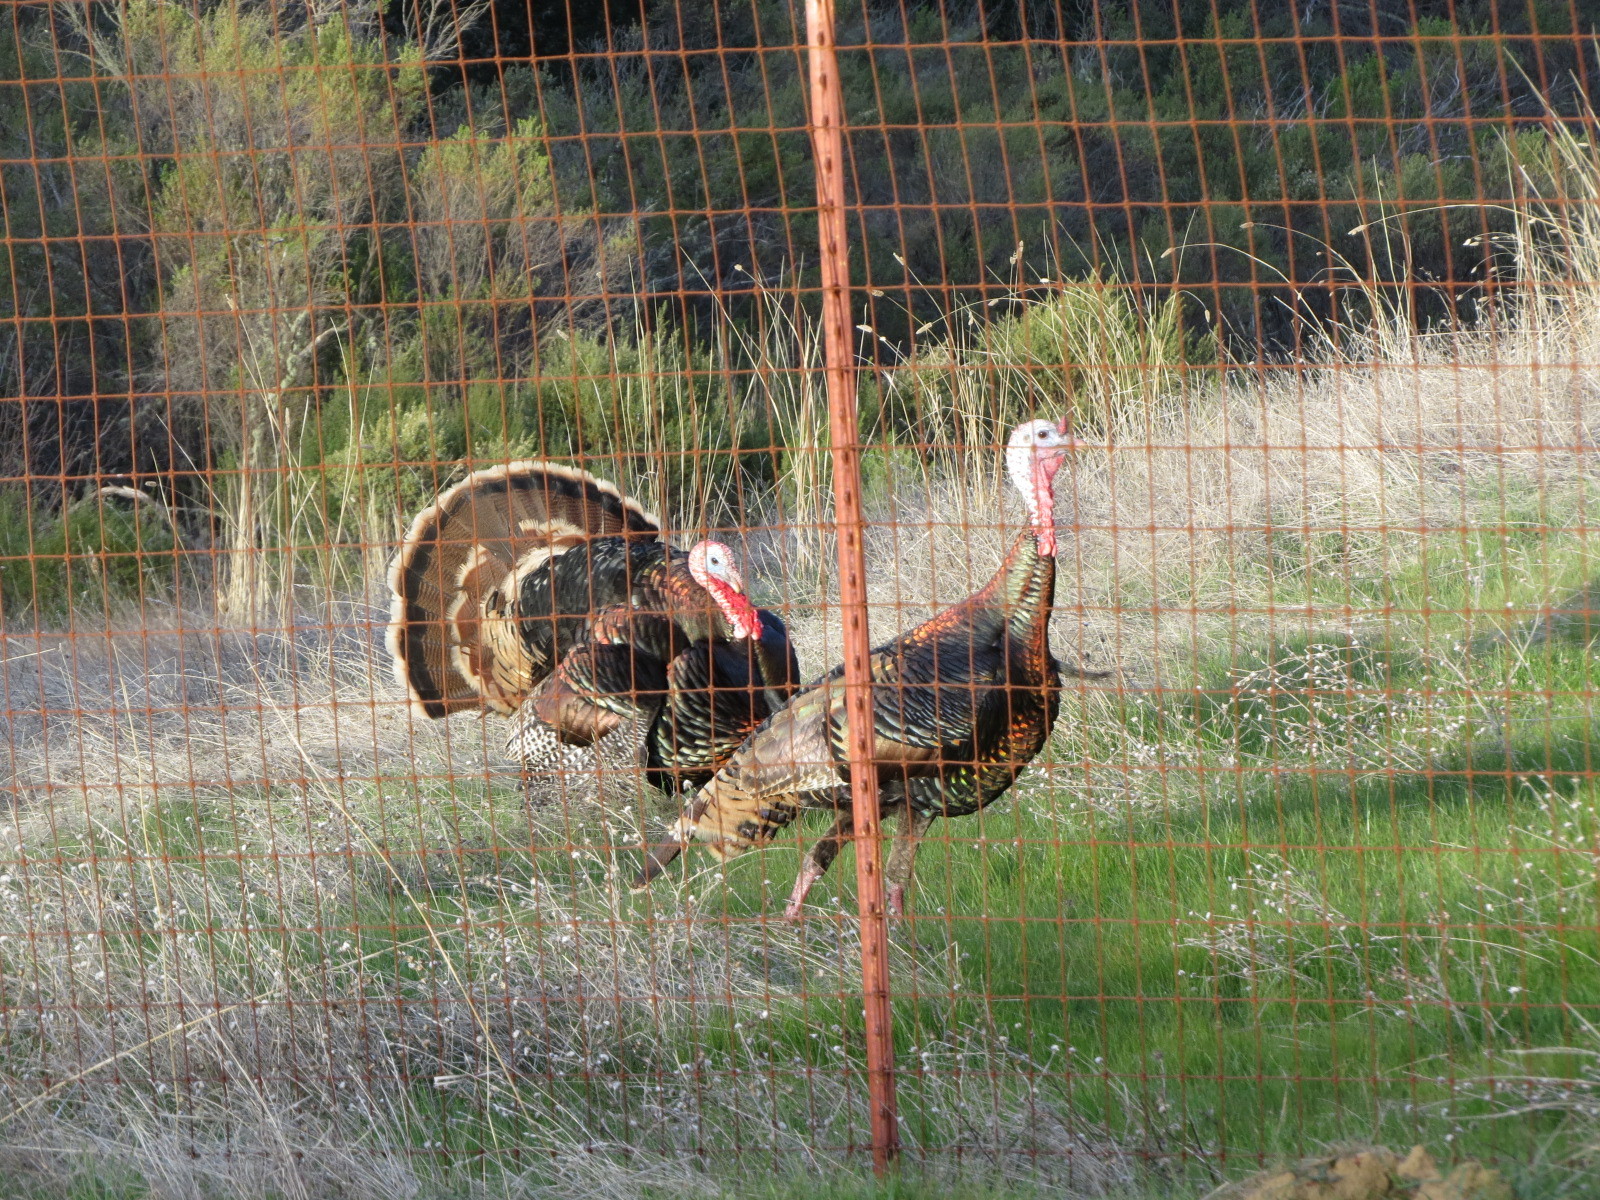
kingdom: Animalia
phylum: Chordata
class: Aves
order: Galliformes
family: Phasianidae
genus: Meleagris
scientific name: Meleagris gallopavo
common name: Wild turkey
